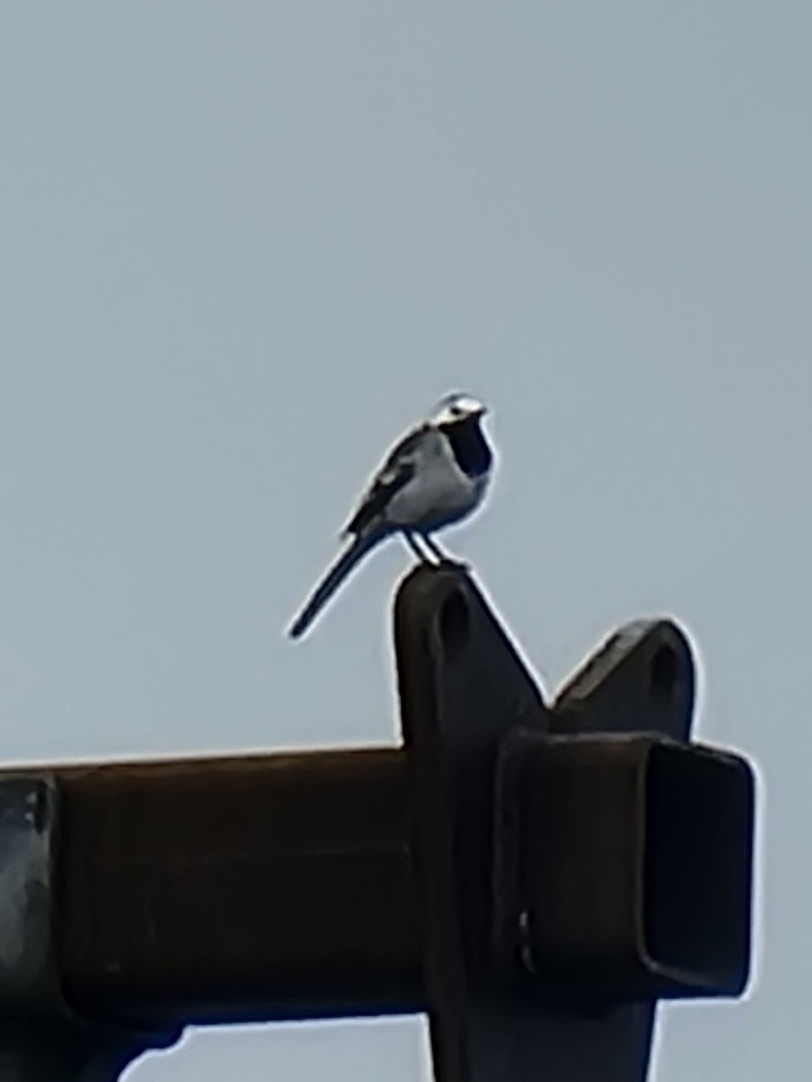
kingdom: Animalia
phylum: Chordata
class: Aves
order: Passeriformes
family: Motacillidae
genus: Motacilla
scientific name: Motacilla alba
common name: White wagtail
